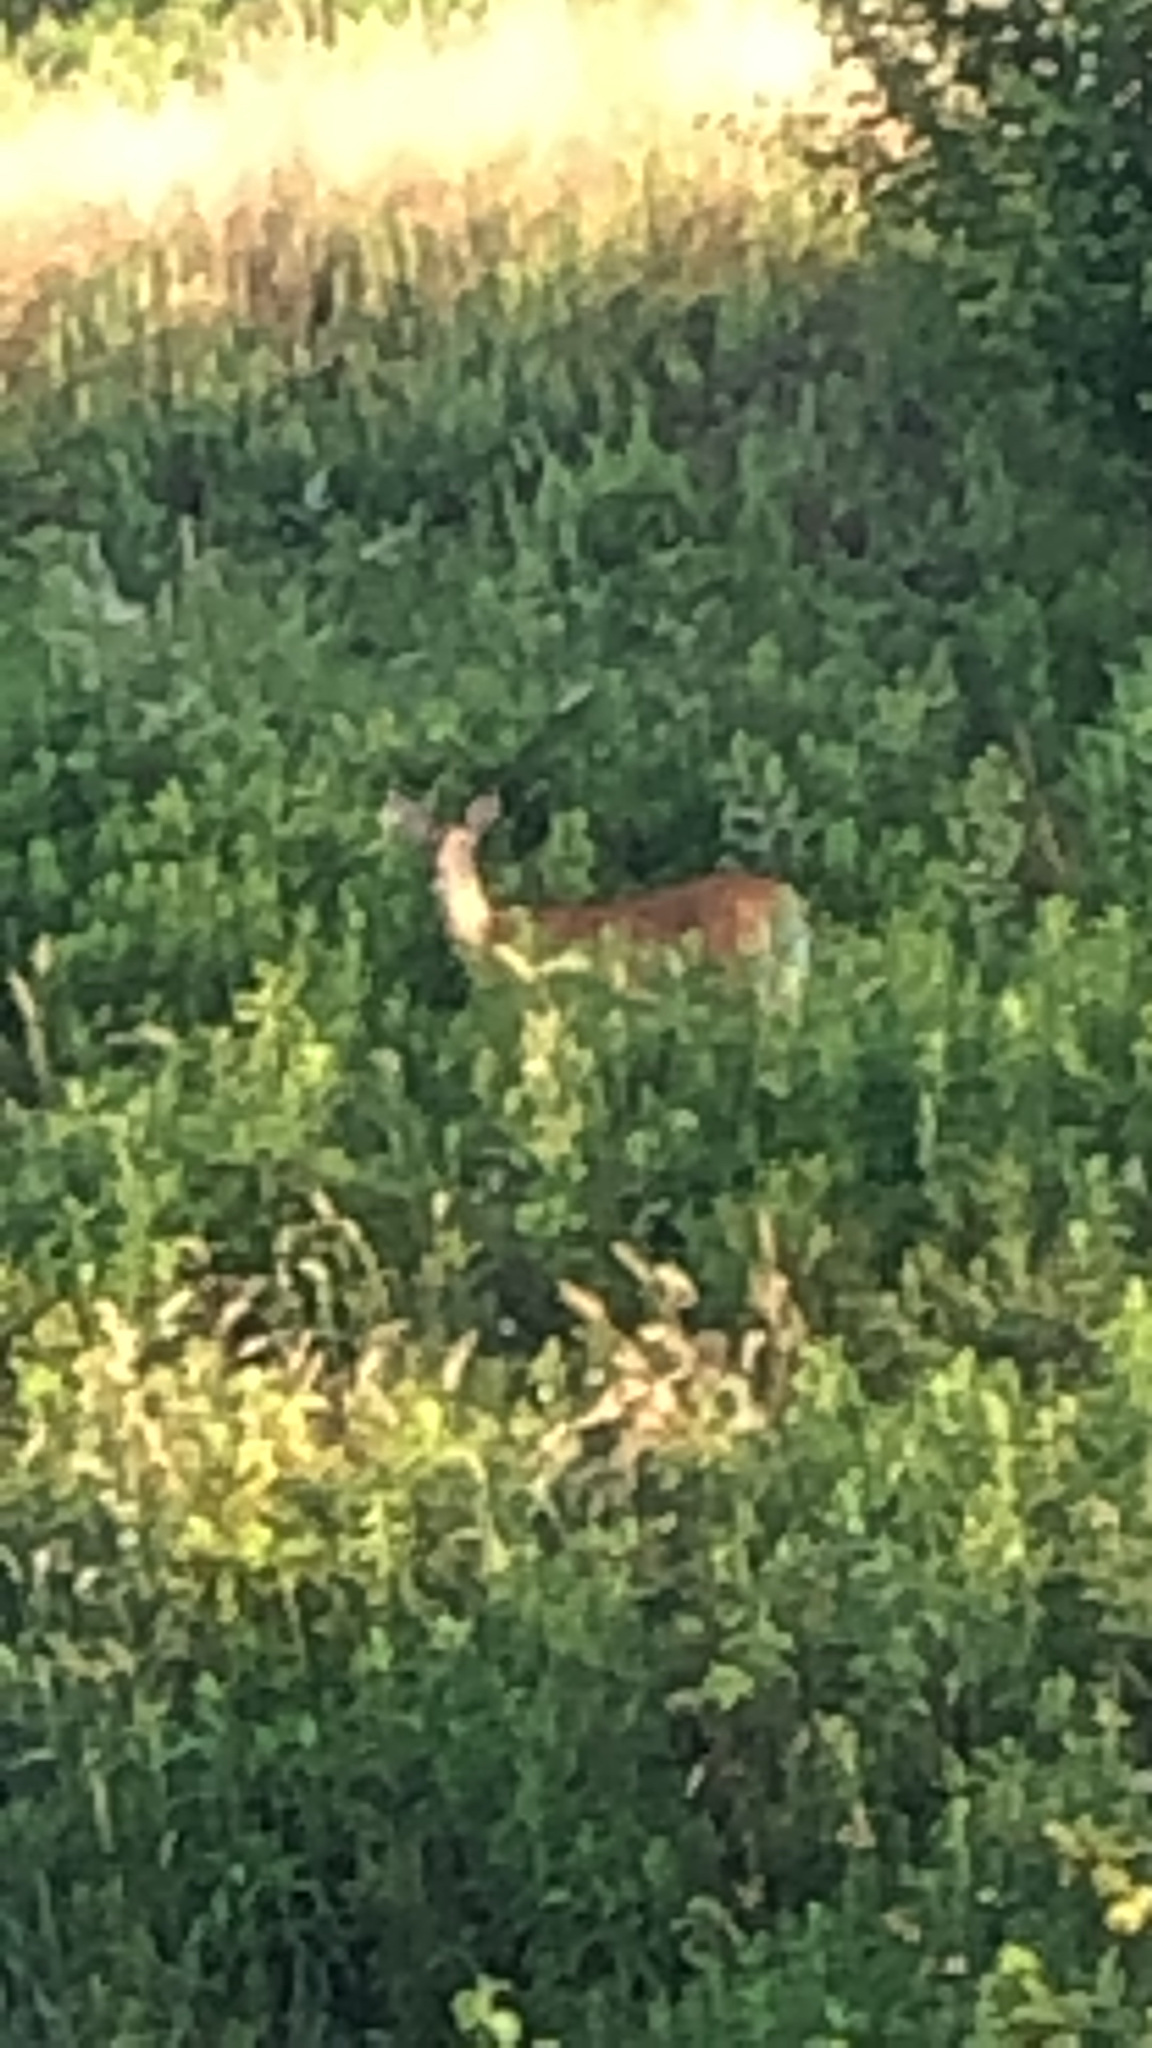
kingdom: Animalia
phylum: Chordata
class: Mammalia
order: Artiodactyla
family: Cervidae
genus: Odocoileus
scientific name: Odocoileus virginianus
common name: White-tailed deer
